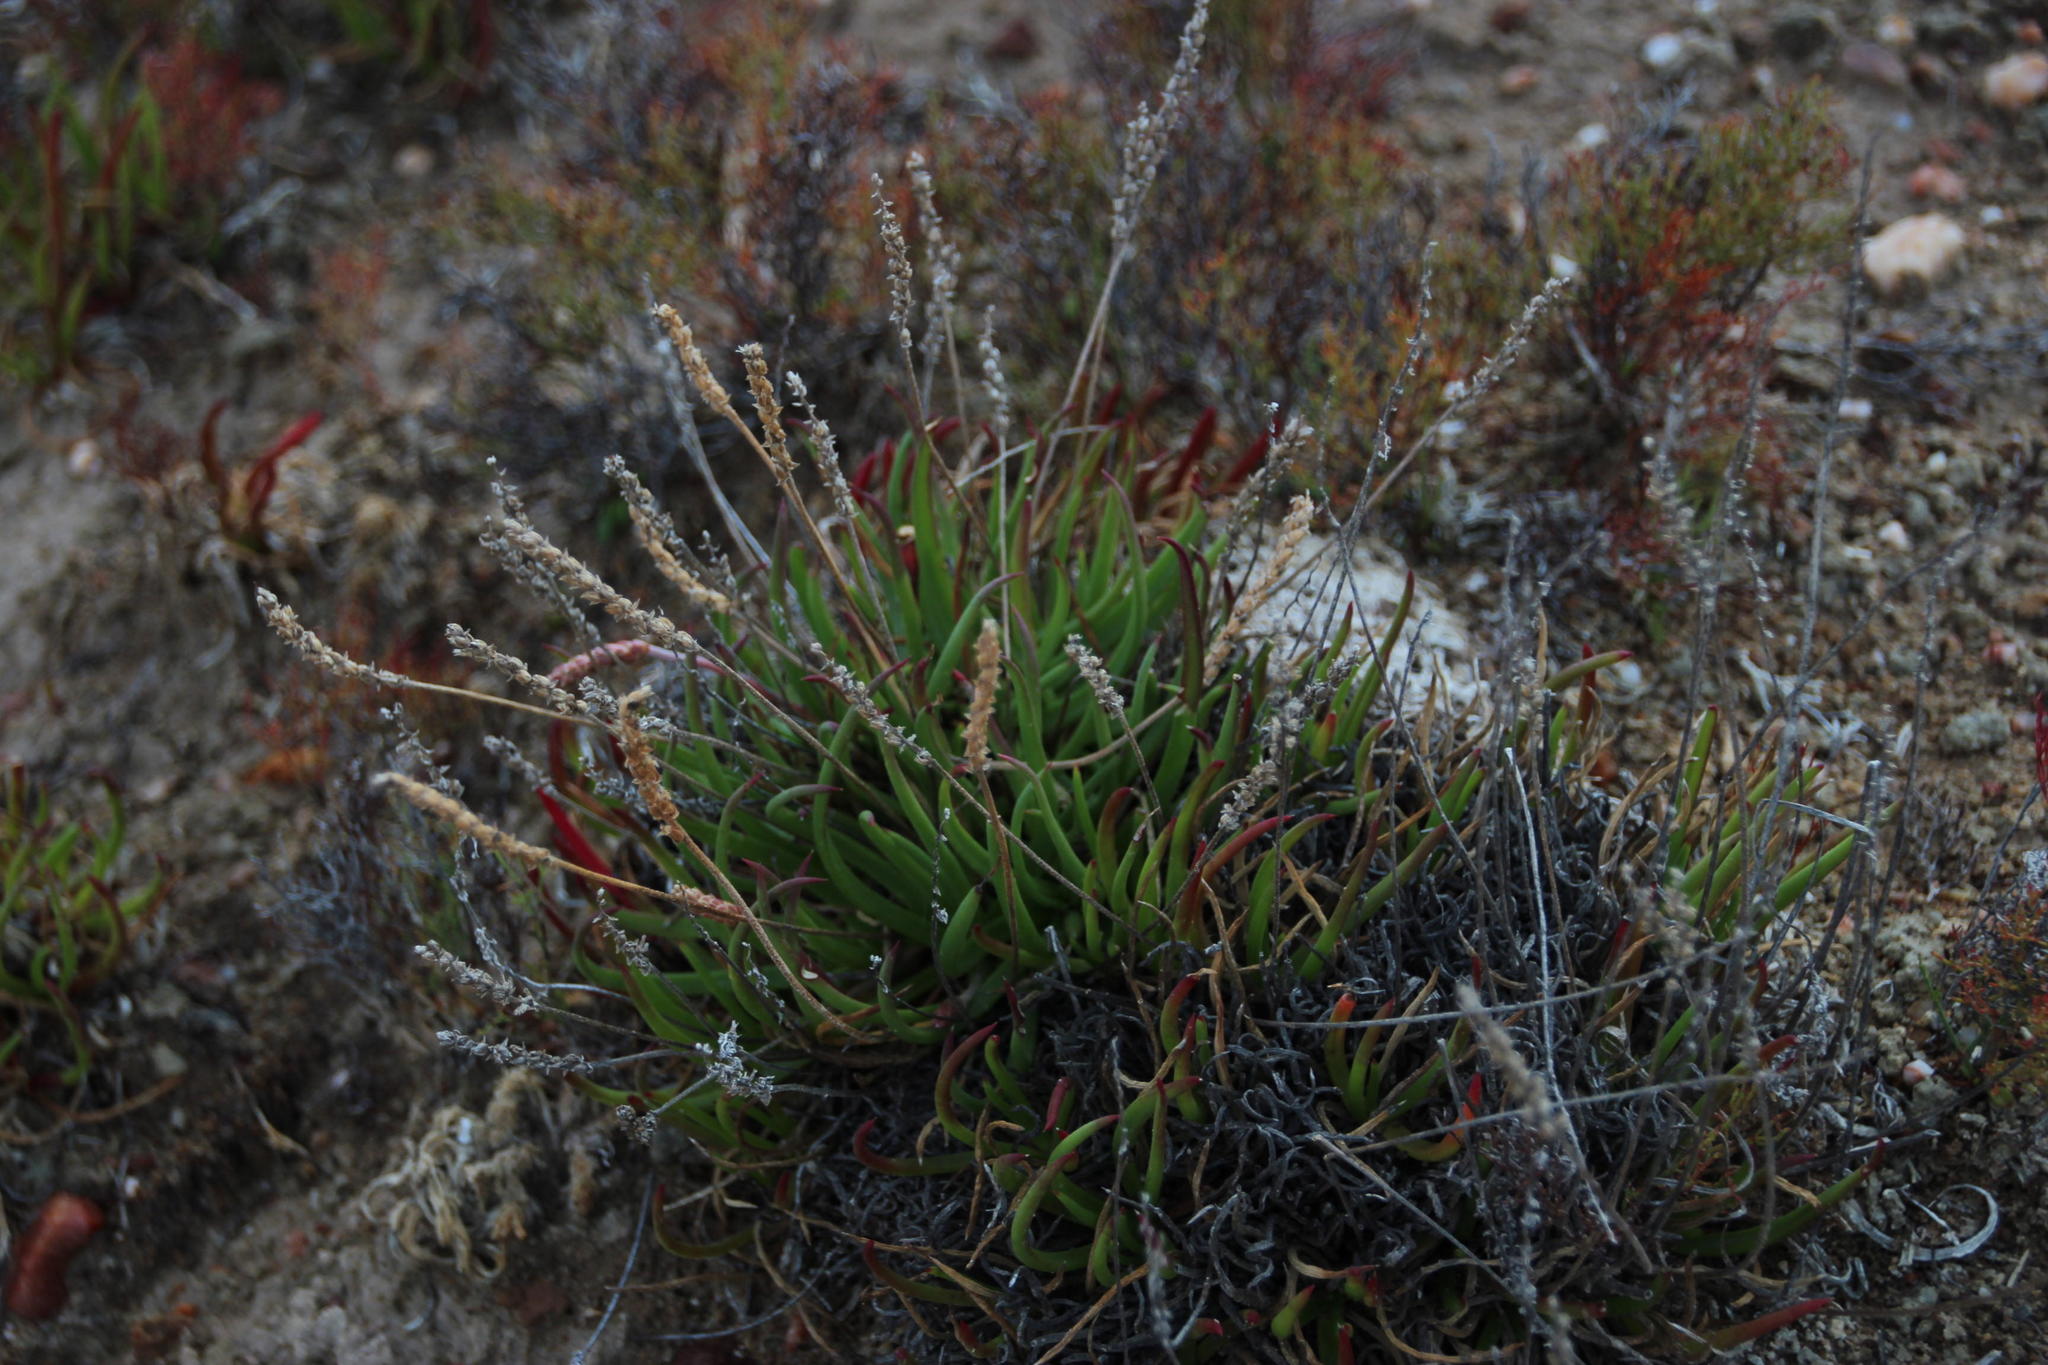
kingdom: Plantae
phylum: Tracheophyta
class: Magnoliopsida
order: Lamiales
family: Plantaginaceae
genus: Plantago
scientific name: Plantago carnosa
